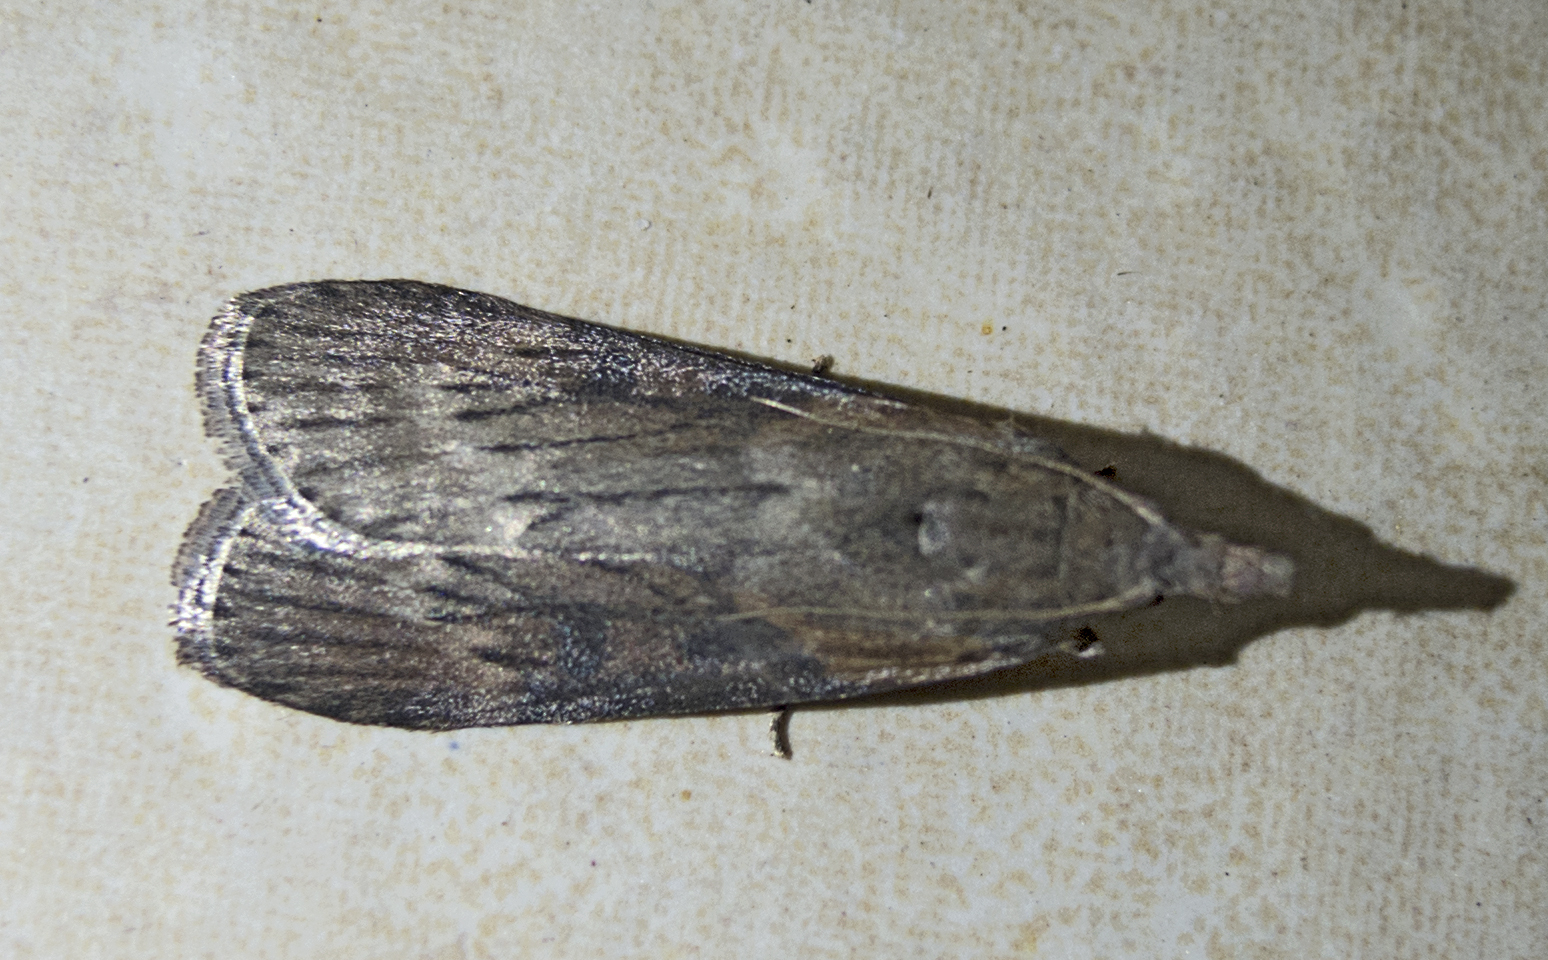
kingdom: Animalia
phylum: Arthropoda
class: Insecta
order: Lepidoptera
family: Pyralidae
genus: Lamoria
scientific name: Lamoria anella
